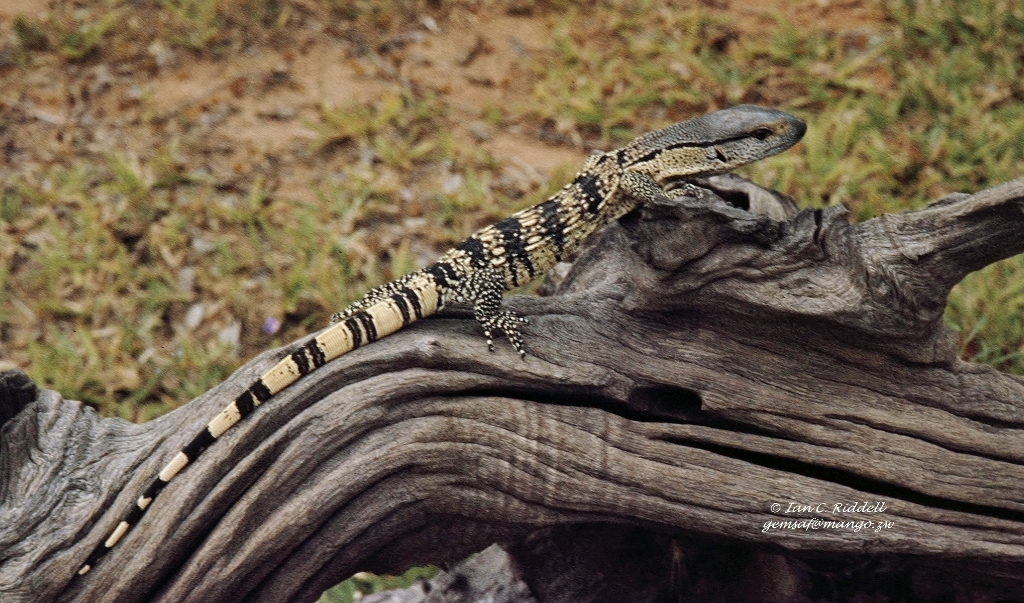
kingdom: Animalia
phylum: Chordata
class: Squamata
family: Varanidae
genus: Varanus
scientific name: Varanus albigularis
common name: White-throated monitor
